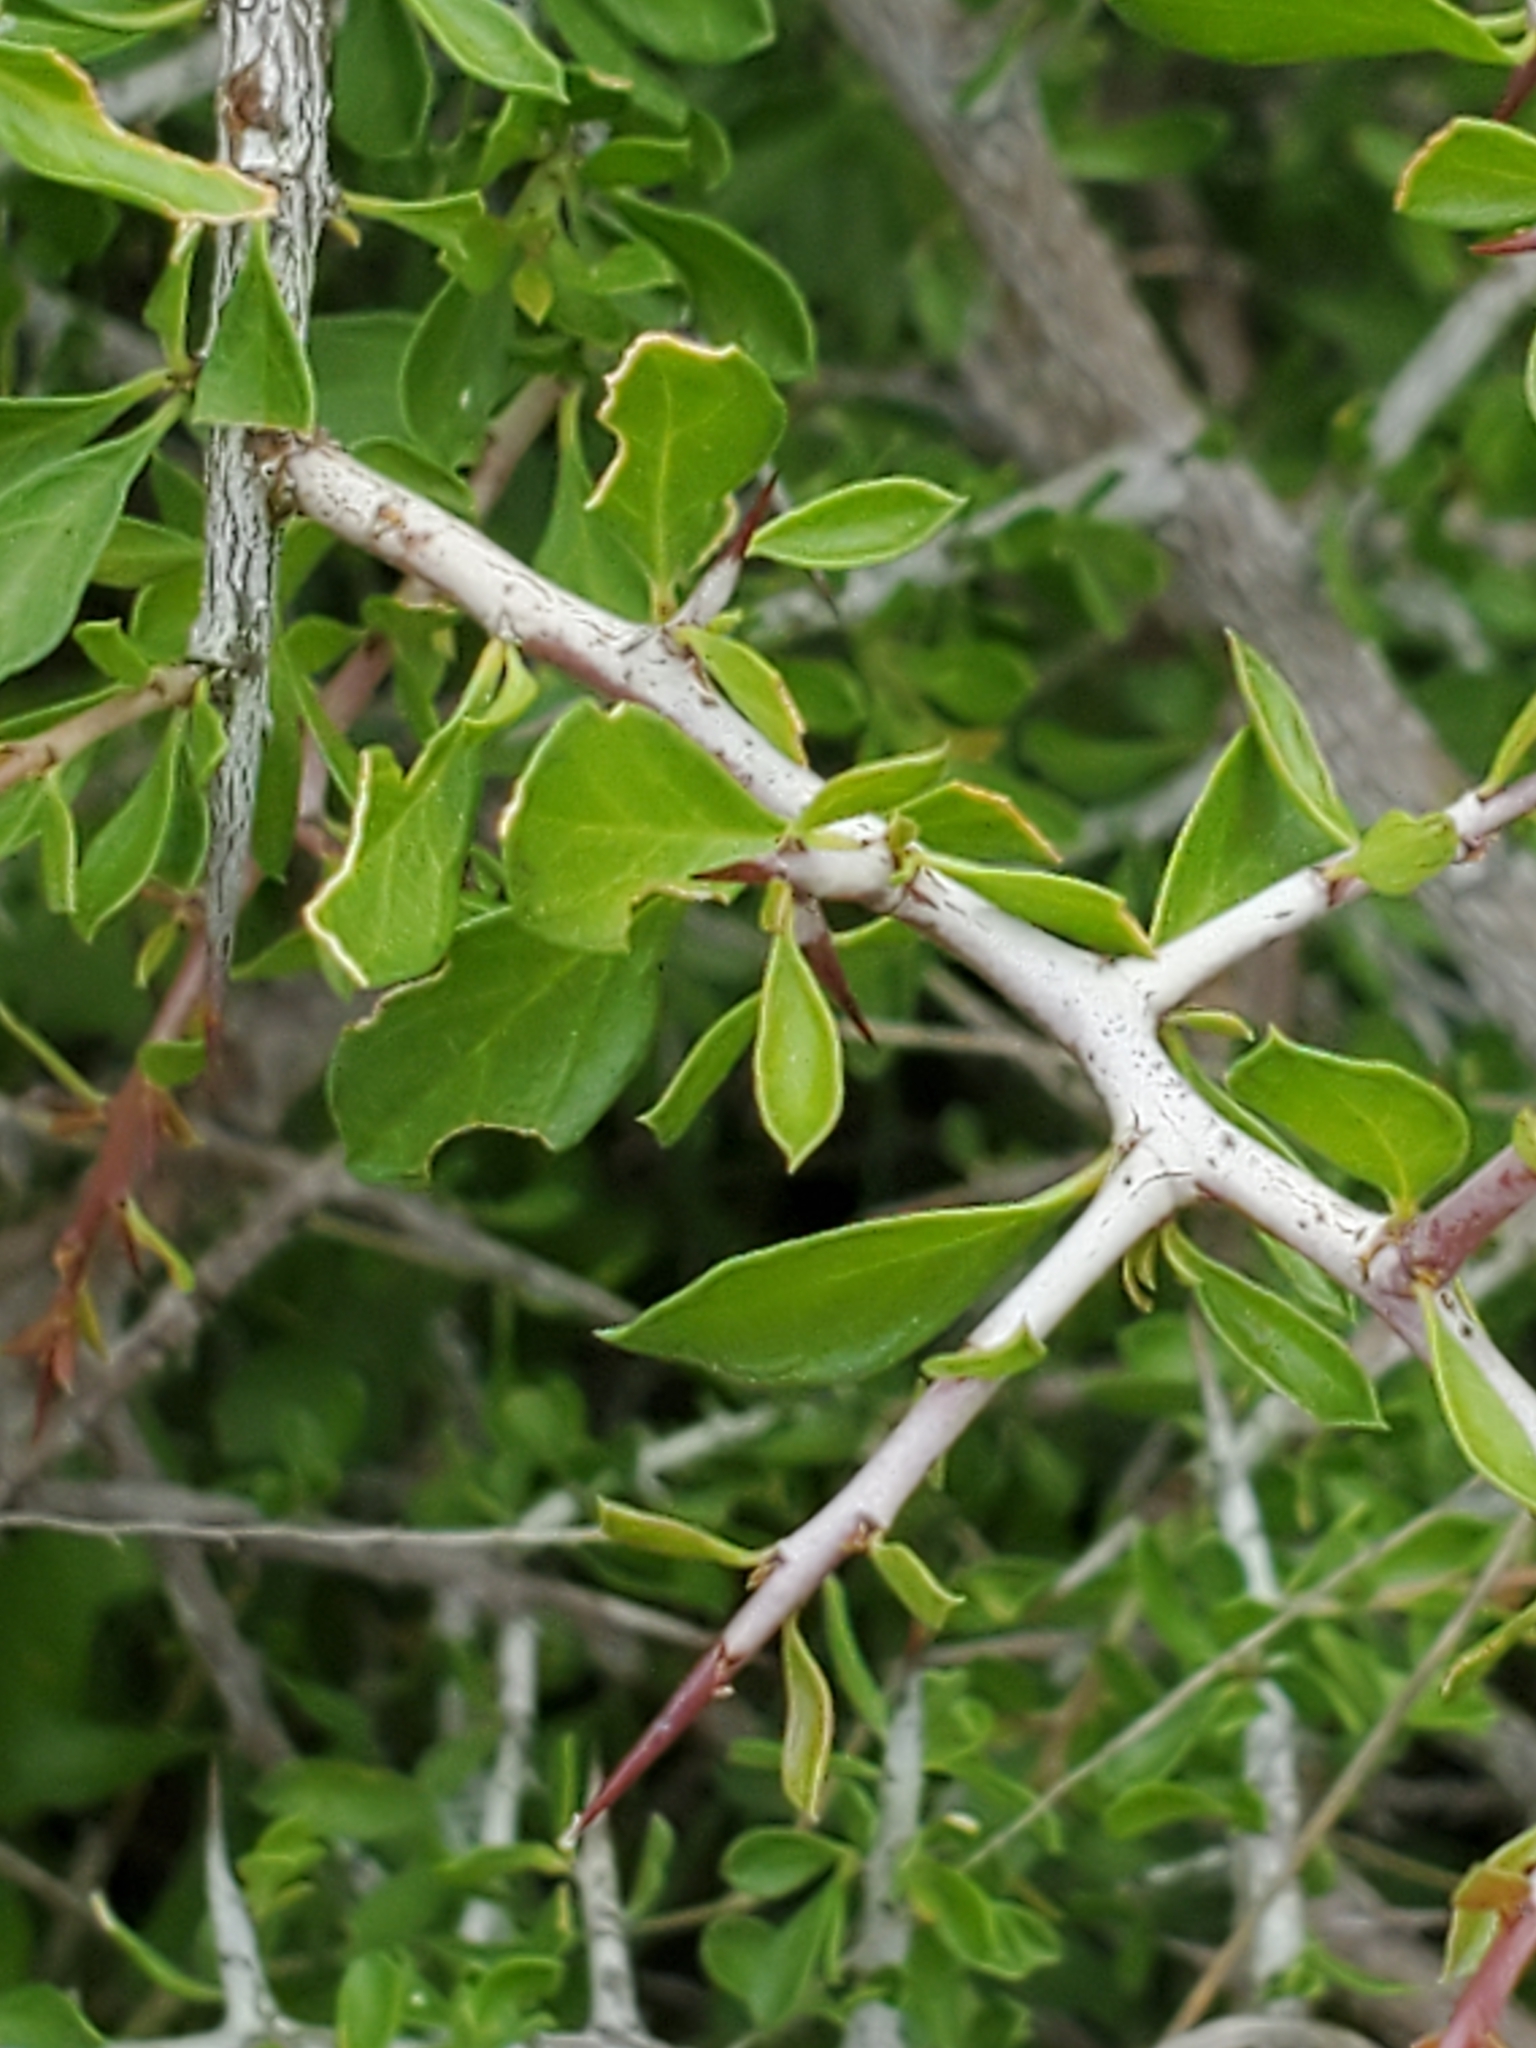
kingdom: Plantae
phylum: Tracheophyta
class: Magnoliopsida
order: Rosales
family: Rhamnaceae
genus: Condalia
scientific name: Condalia viridis
